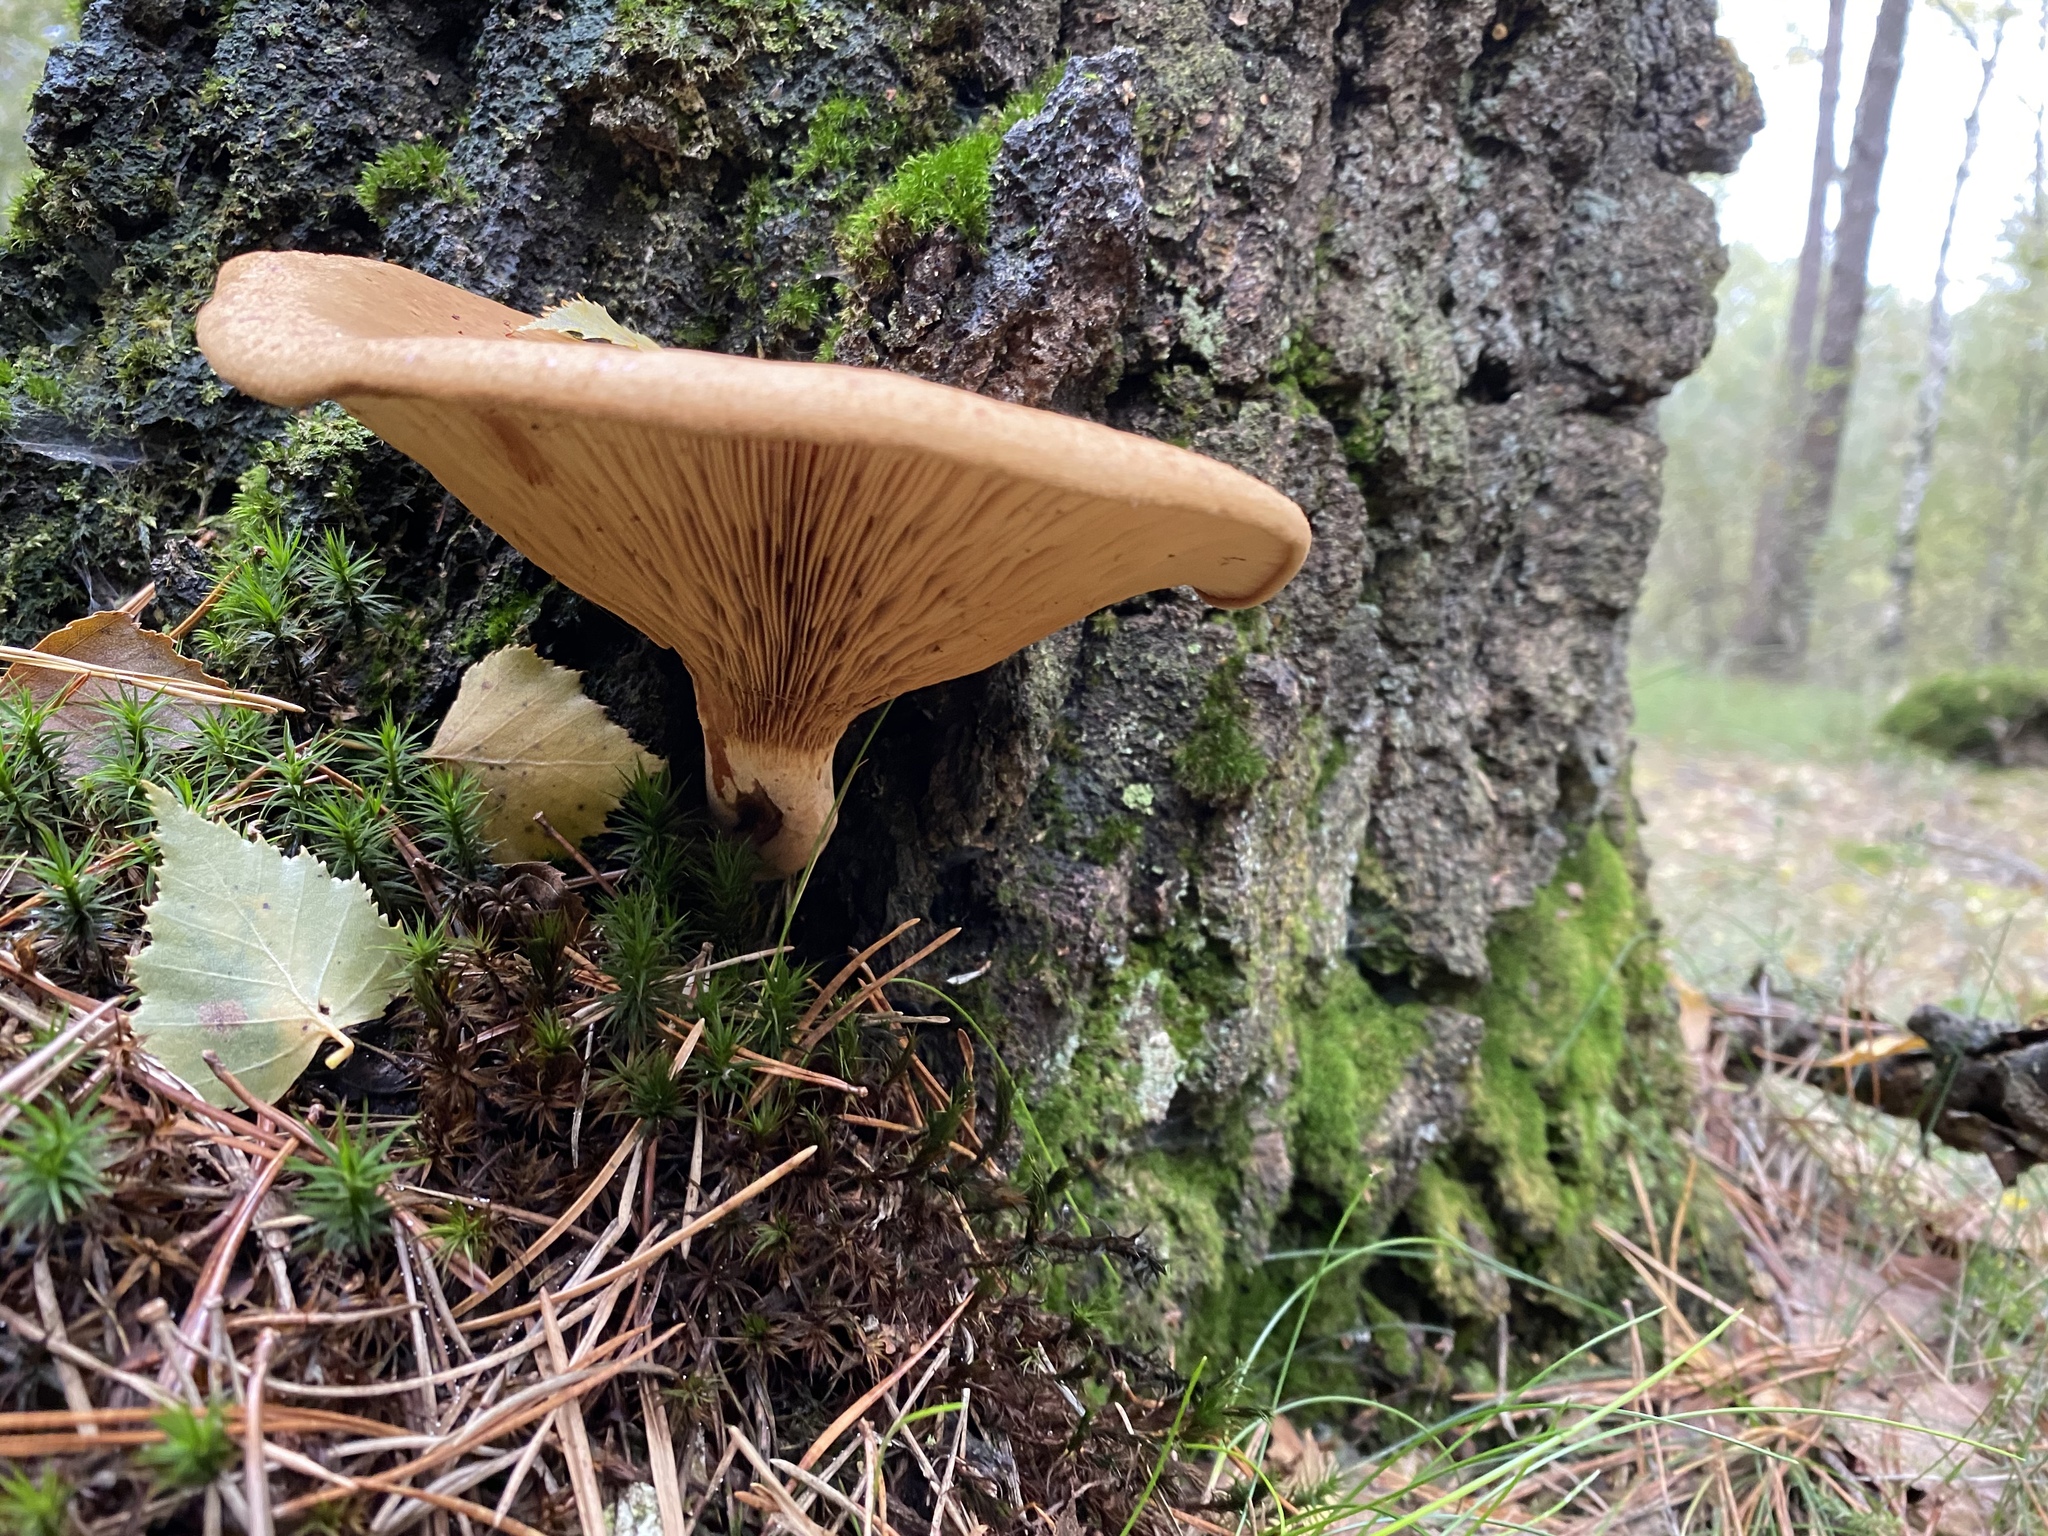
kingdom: Fungi
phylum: Basidiomycota
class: Agaricomycetes
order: Boletales
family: Tapinellaceae
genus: Tapinella
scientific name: Tapinella atrotomentosa
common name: Velvet rollrim
